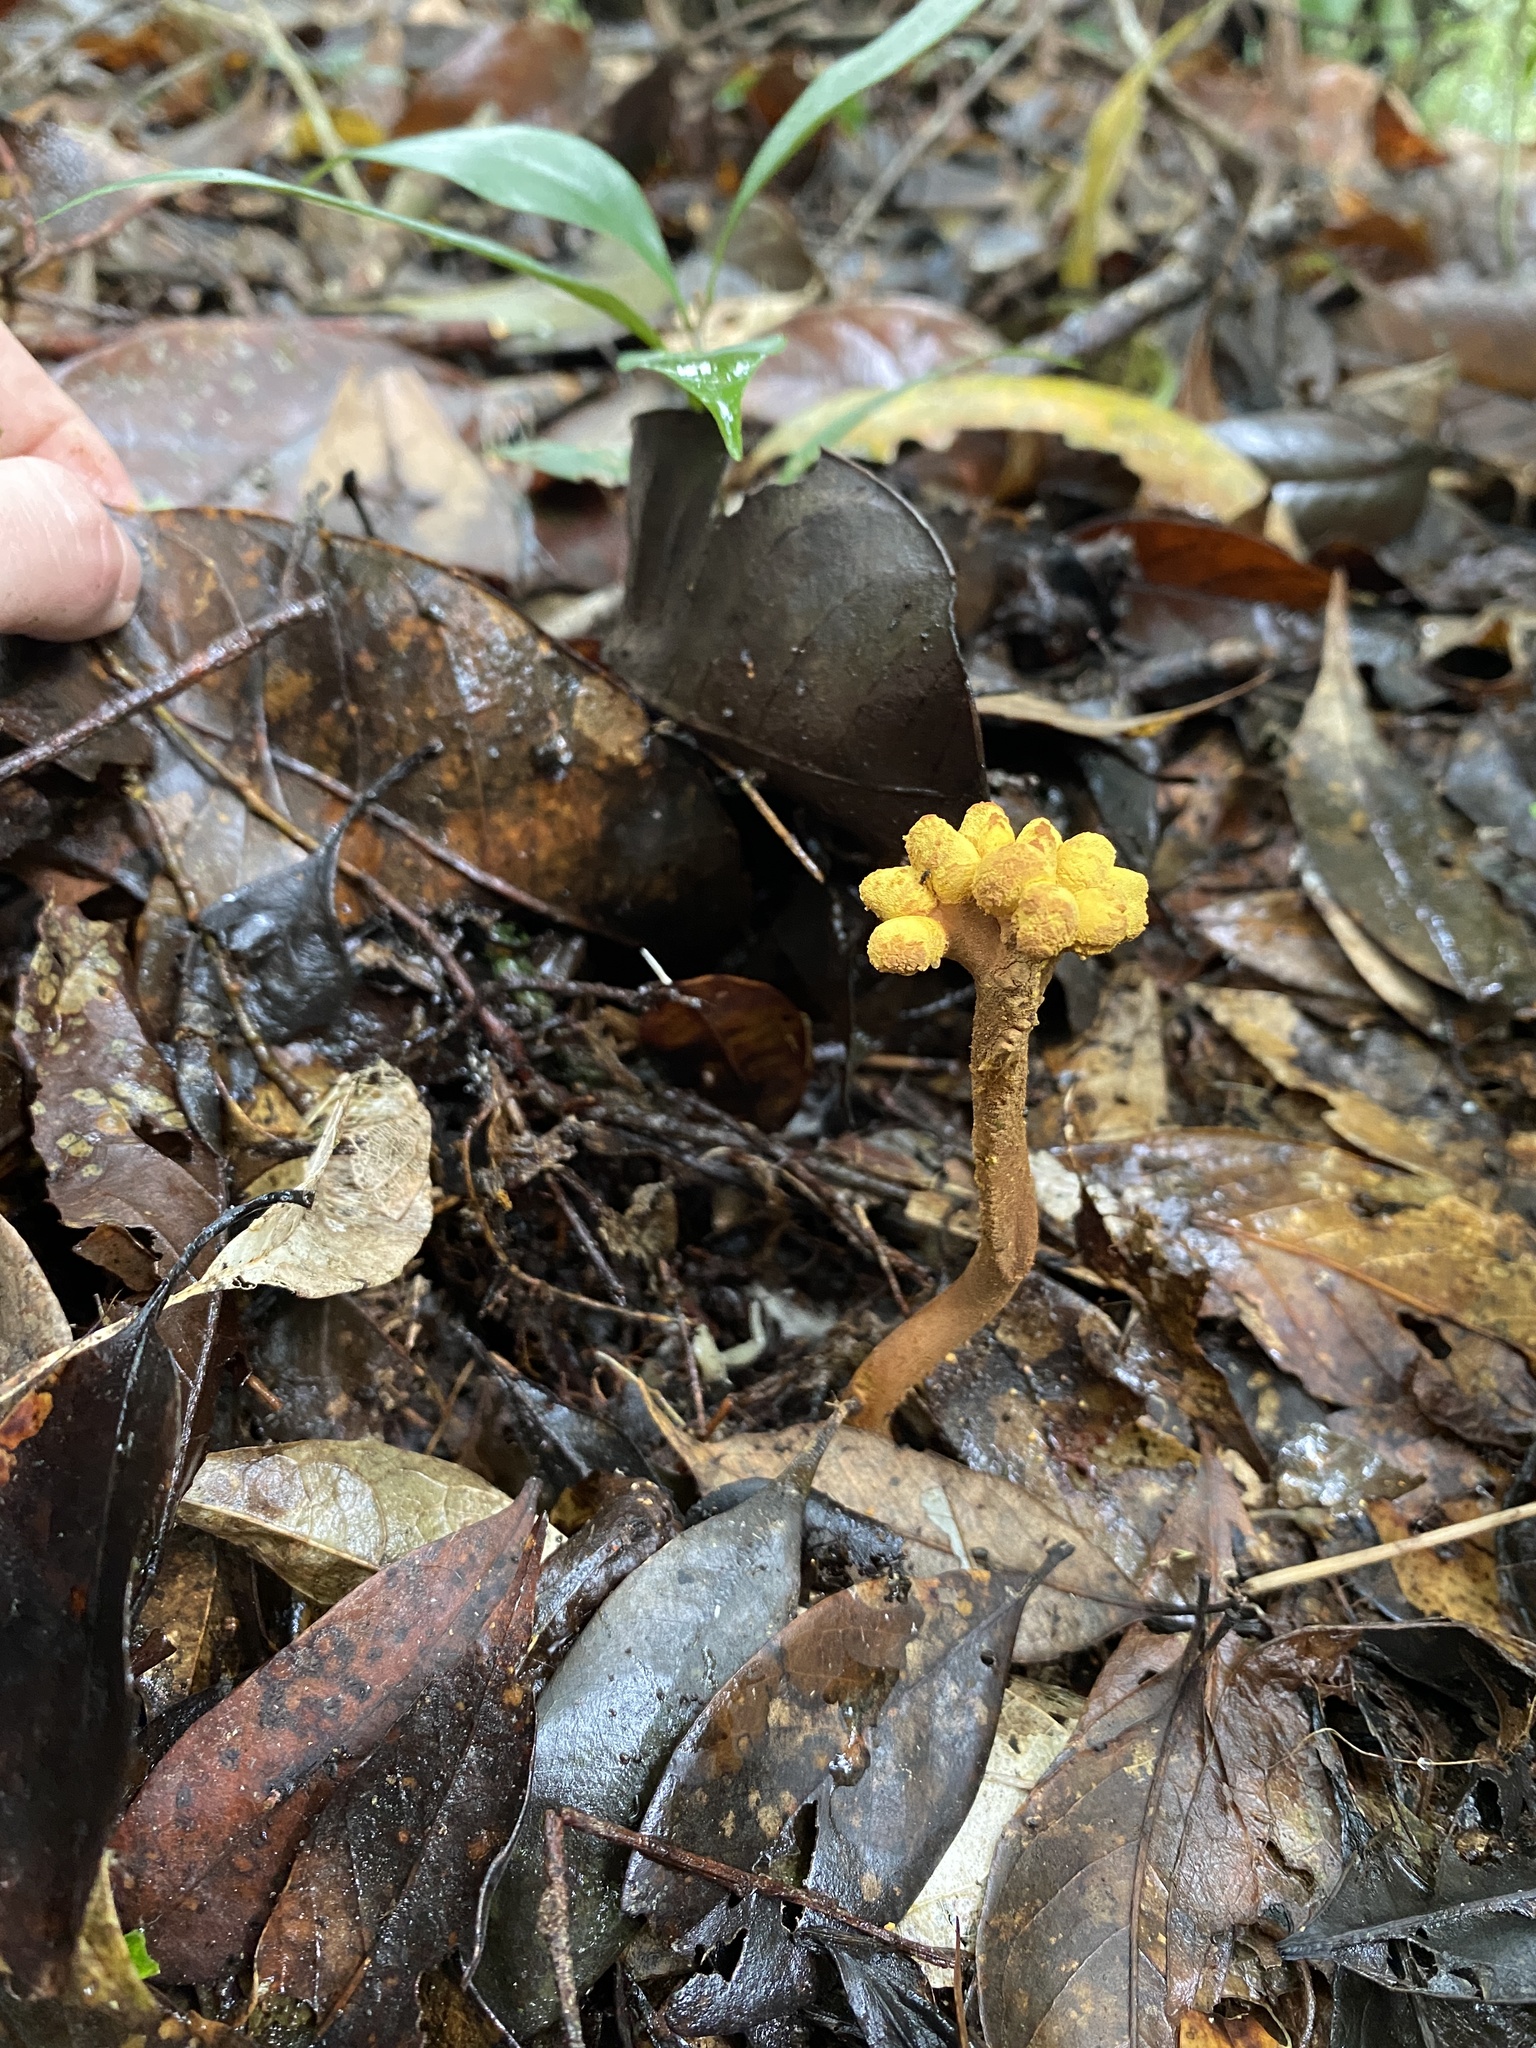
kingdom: Fungi
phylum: Ascomycota
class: Eurotiomycetes
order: Eurotiales
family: Aspergillaceae
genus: Dendrosphaera
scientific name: Dendrosphaera eberhardtii
